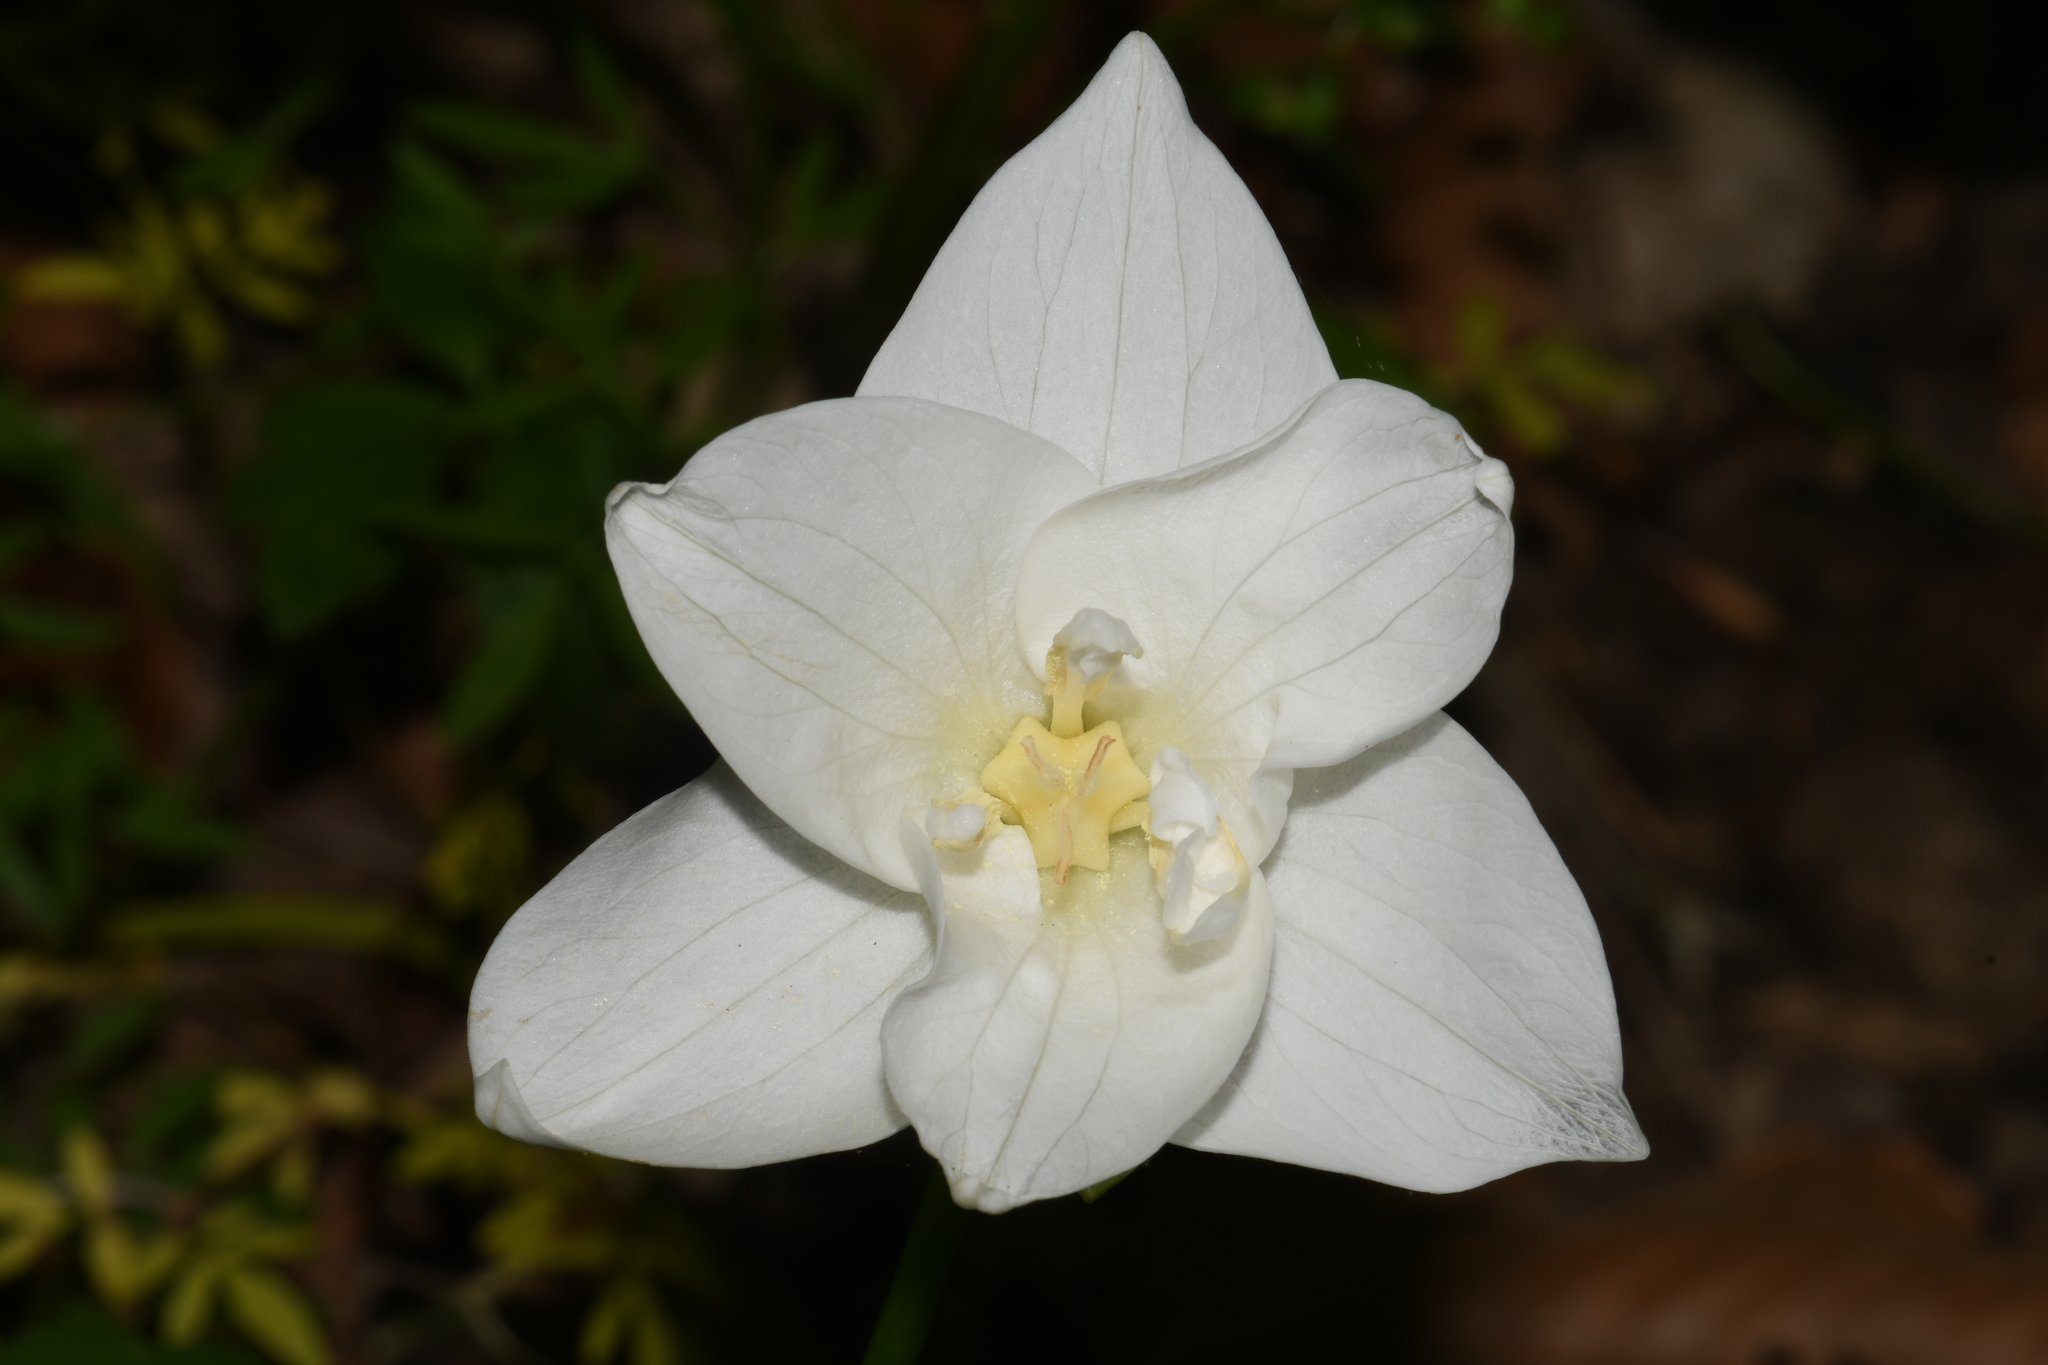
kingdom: Plantae
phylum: Tracheophyta
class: Liliopsida
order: Liliales
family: Melanthiaceae
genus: Trillium
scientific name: Trillium flexipes
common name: Drooping trillium
